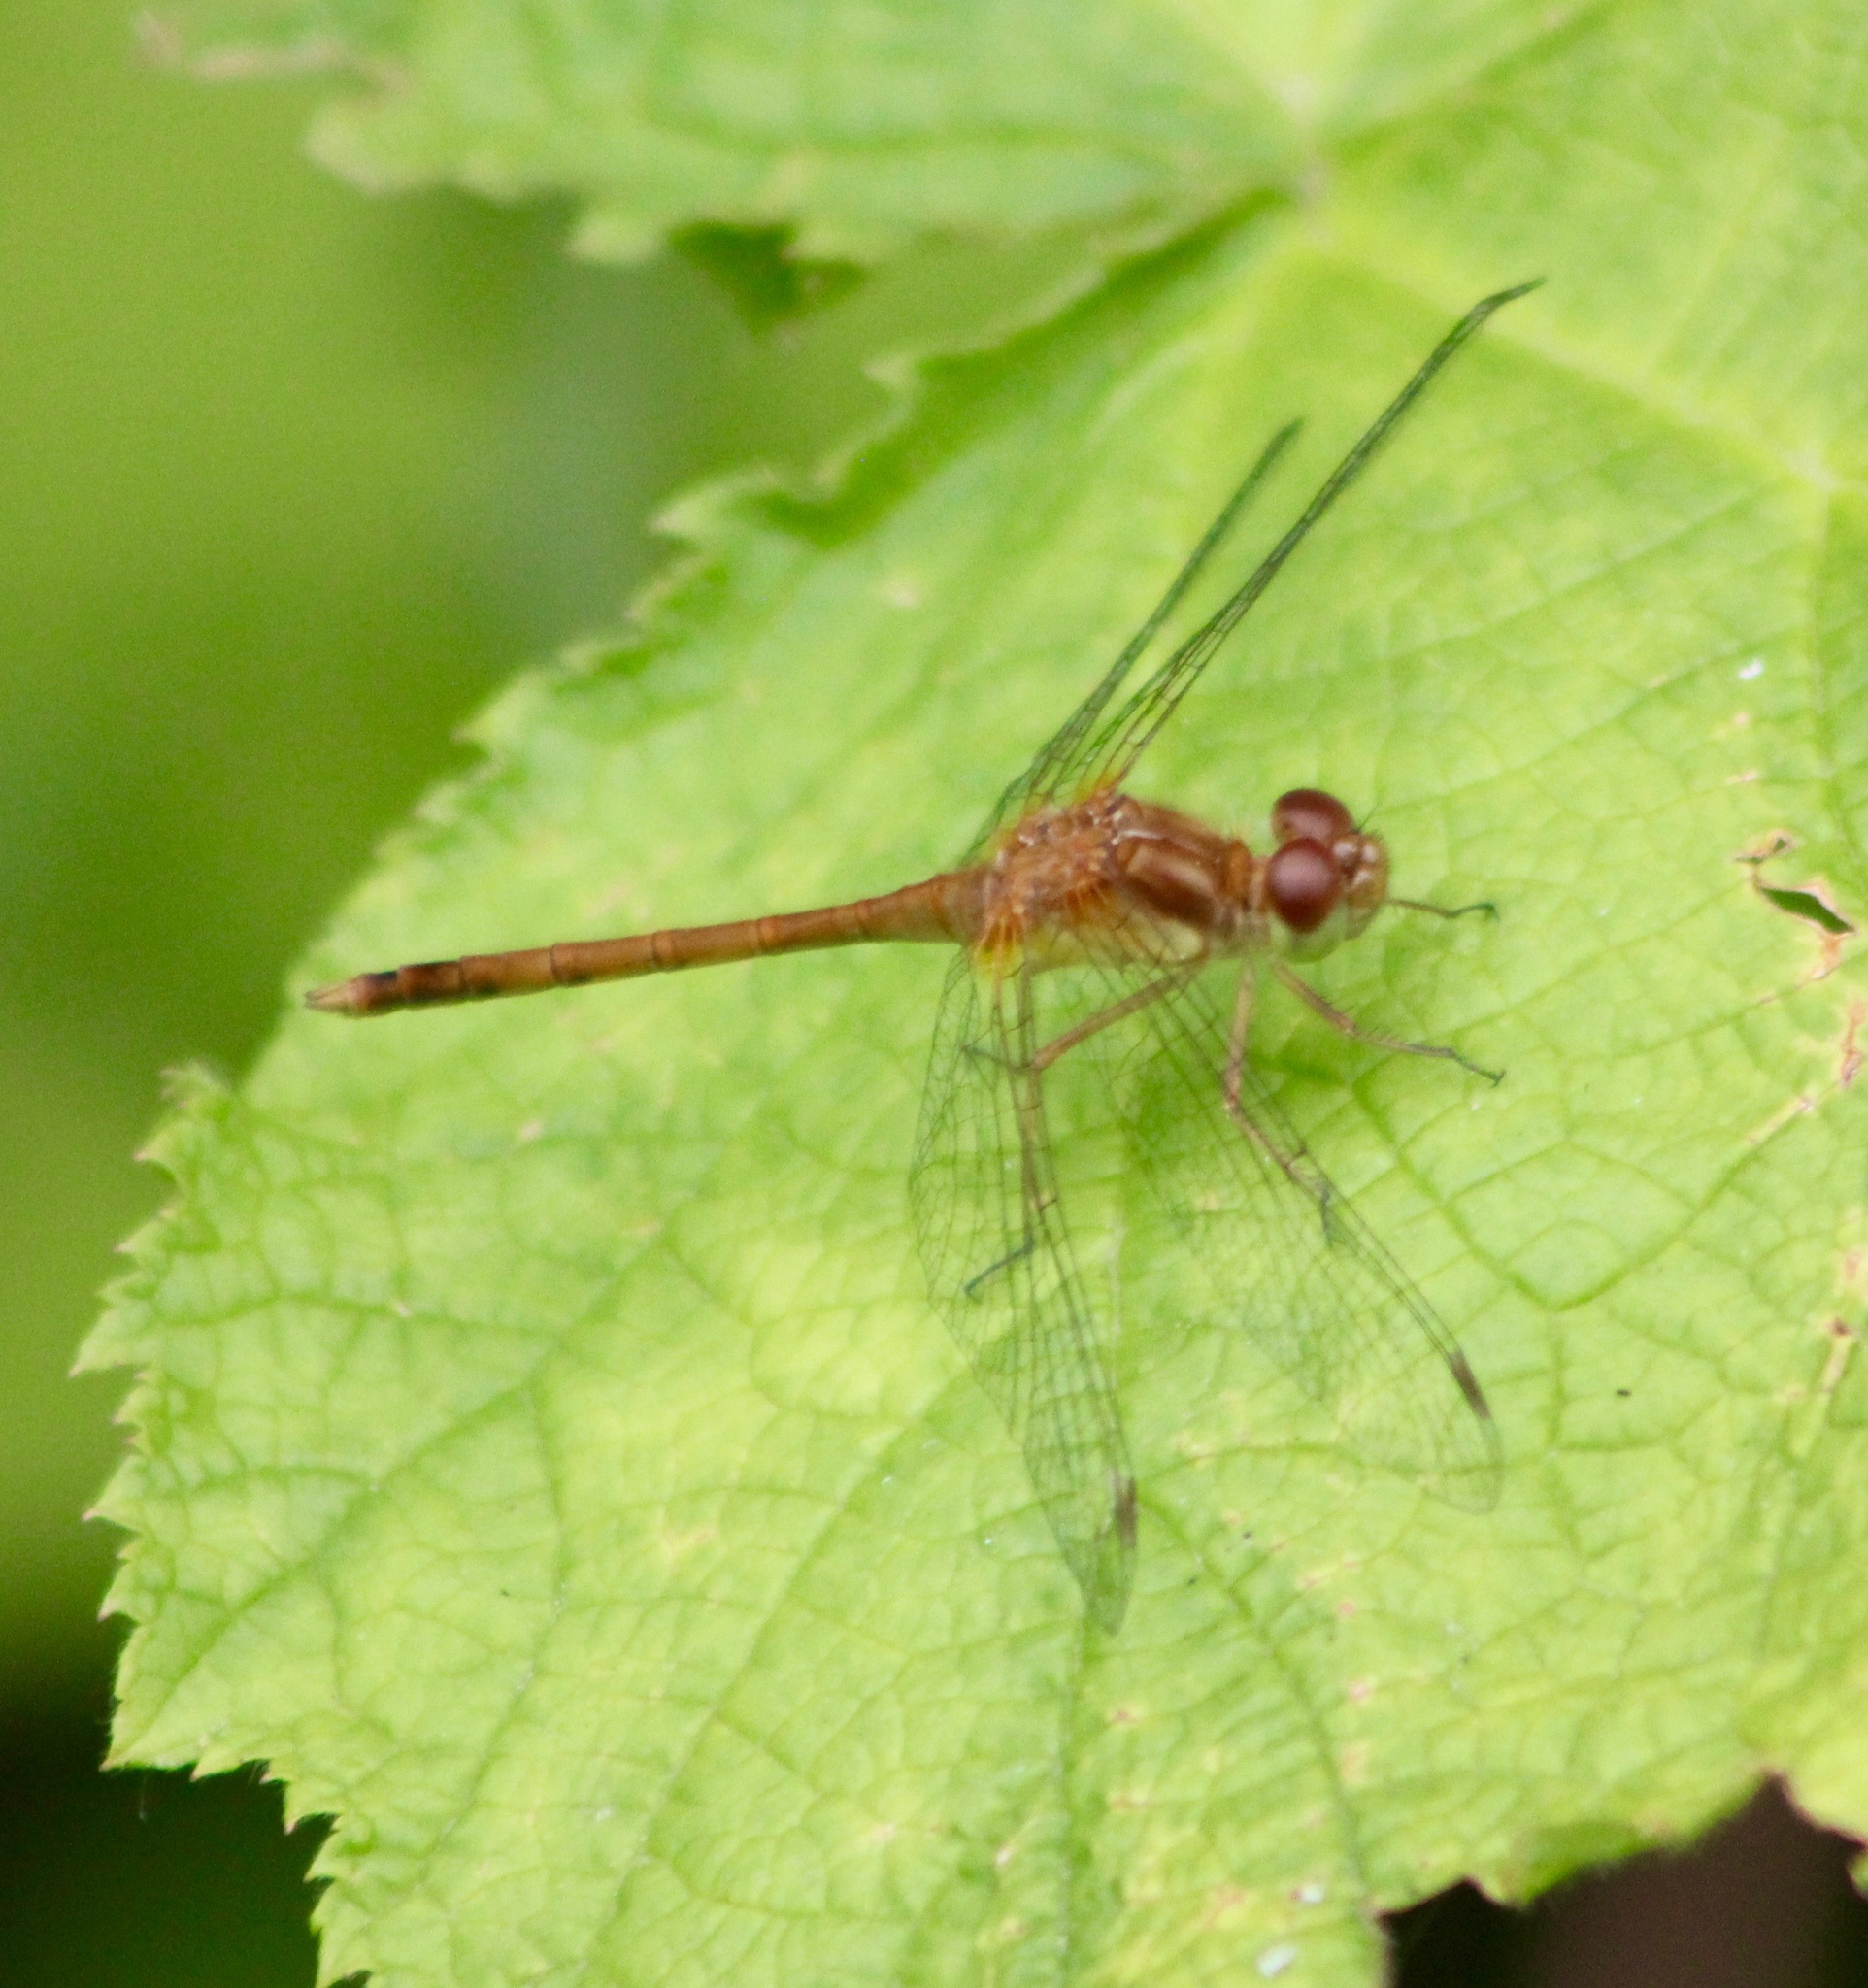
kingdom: Animalia
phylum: Arthropoda
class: Insecta
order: Odonata
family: Libellulidae
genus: Sympetrum
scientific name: Sympetrum vicinum
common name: Autumn meadowhawk
